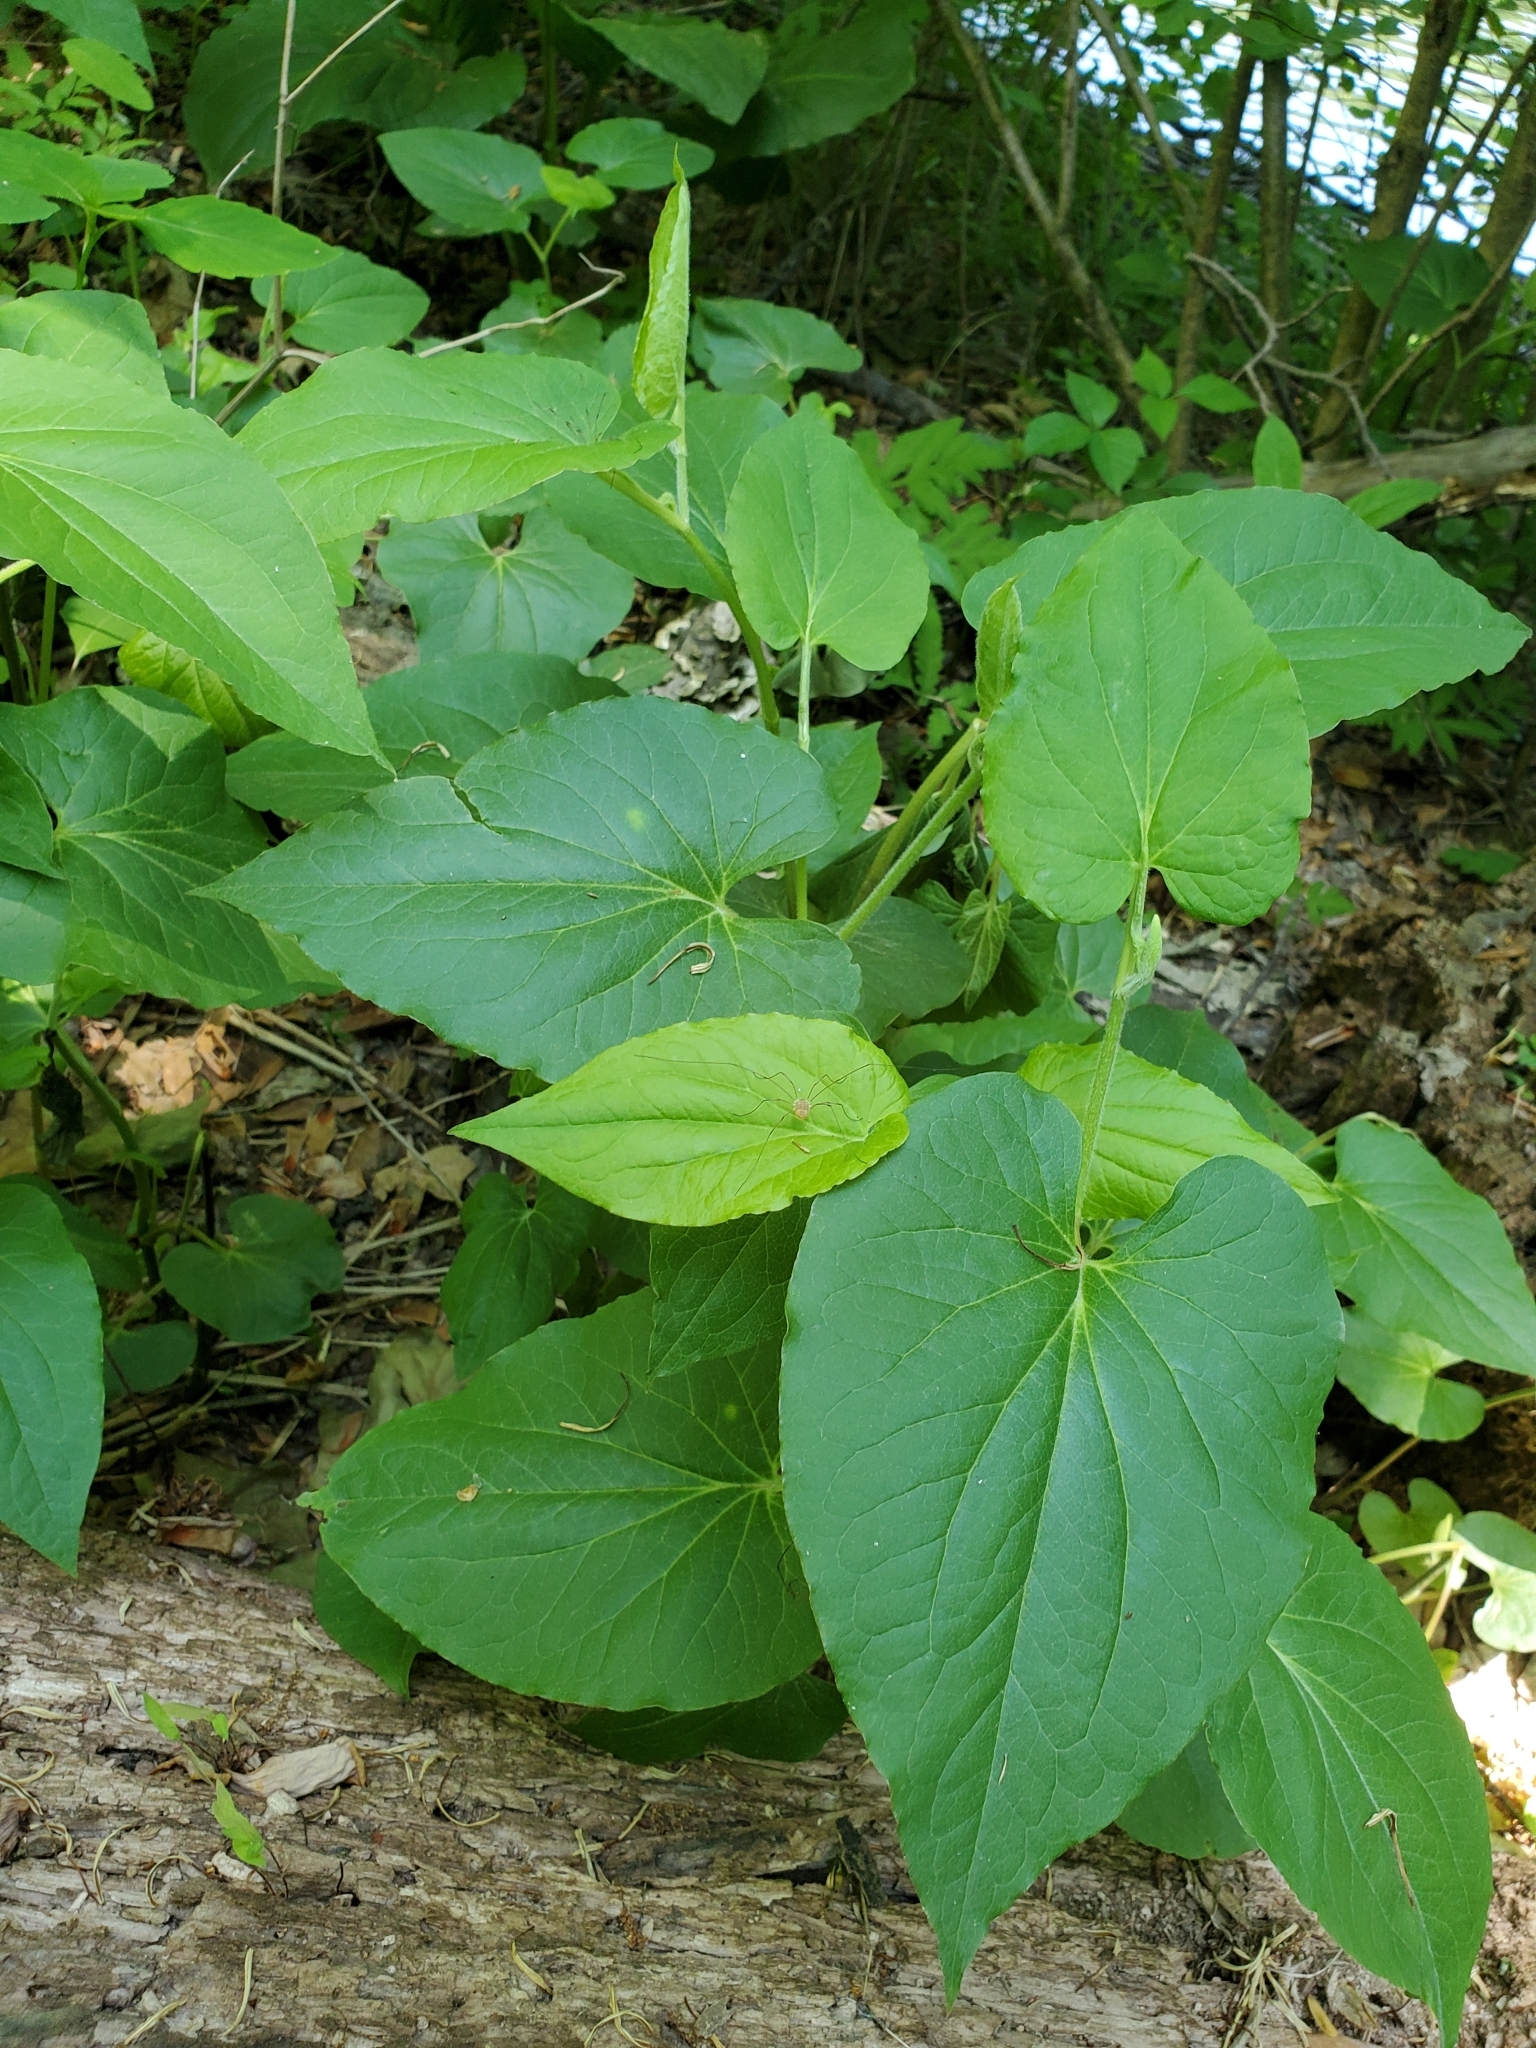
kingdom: Plantae
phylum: Tracheophyta
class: Magnoliopsida
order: Piperales
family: Saururaceae
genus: Saururus
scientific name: Saururus cernuus
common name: Lizard's-tail
